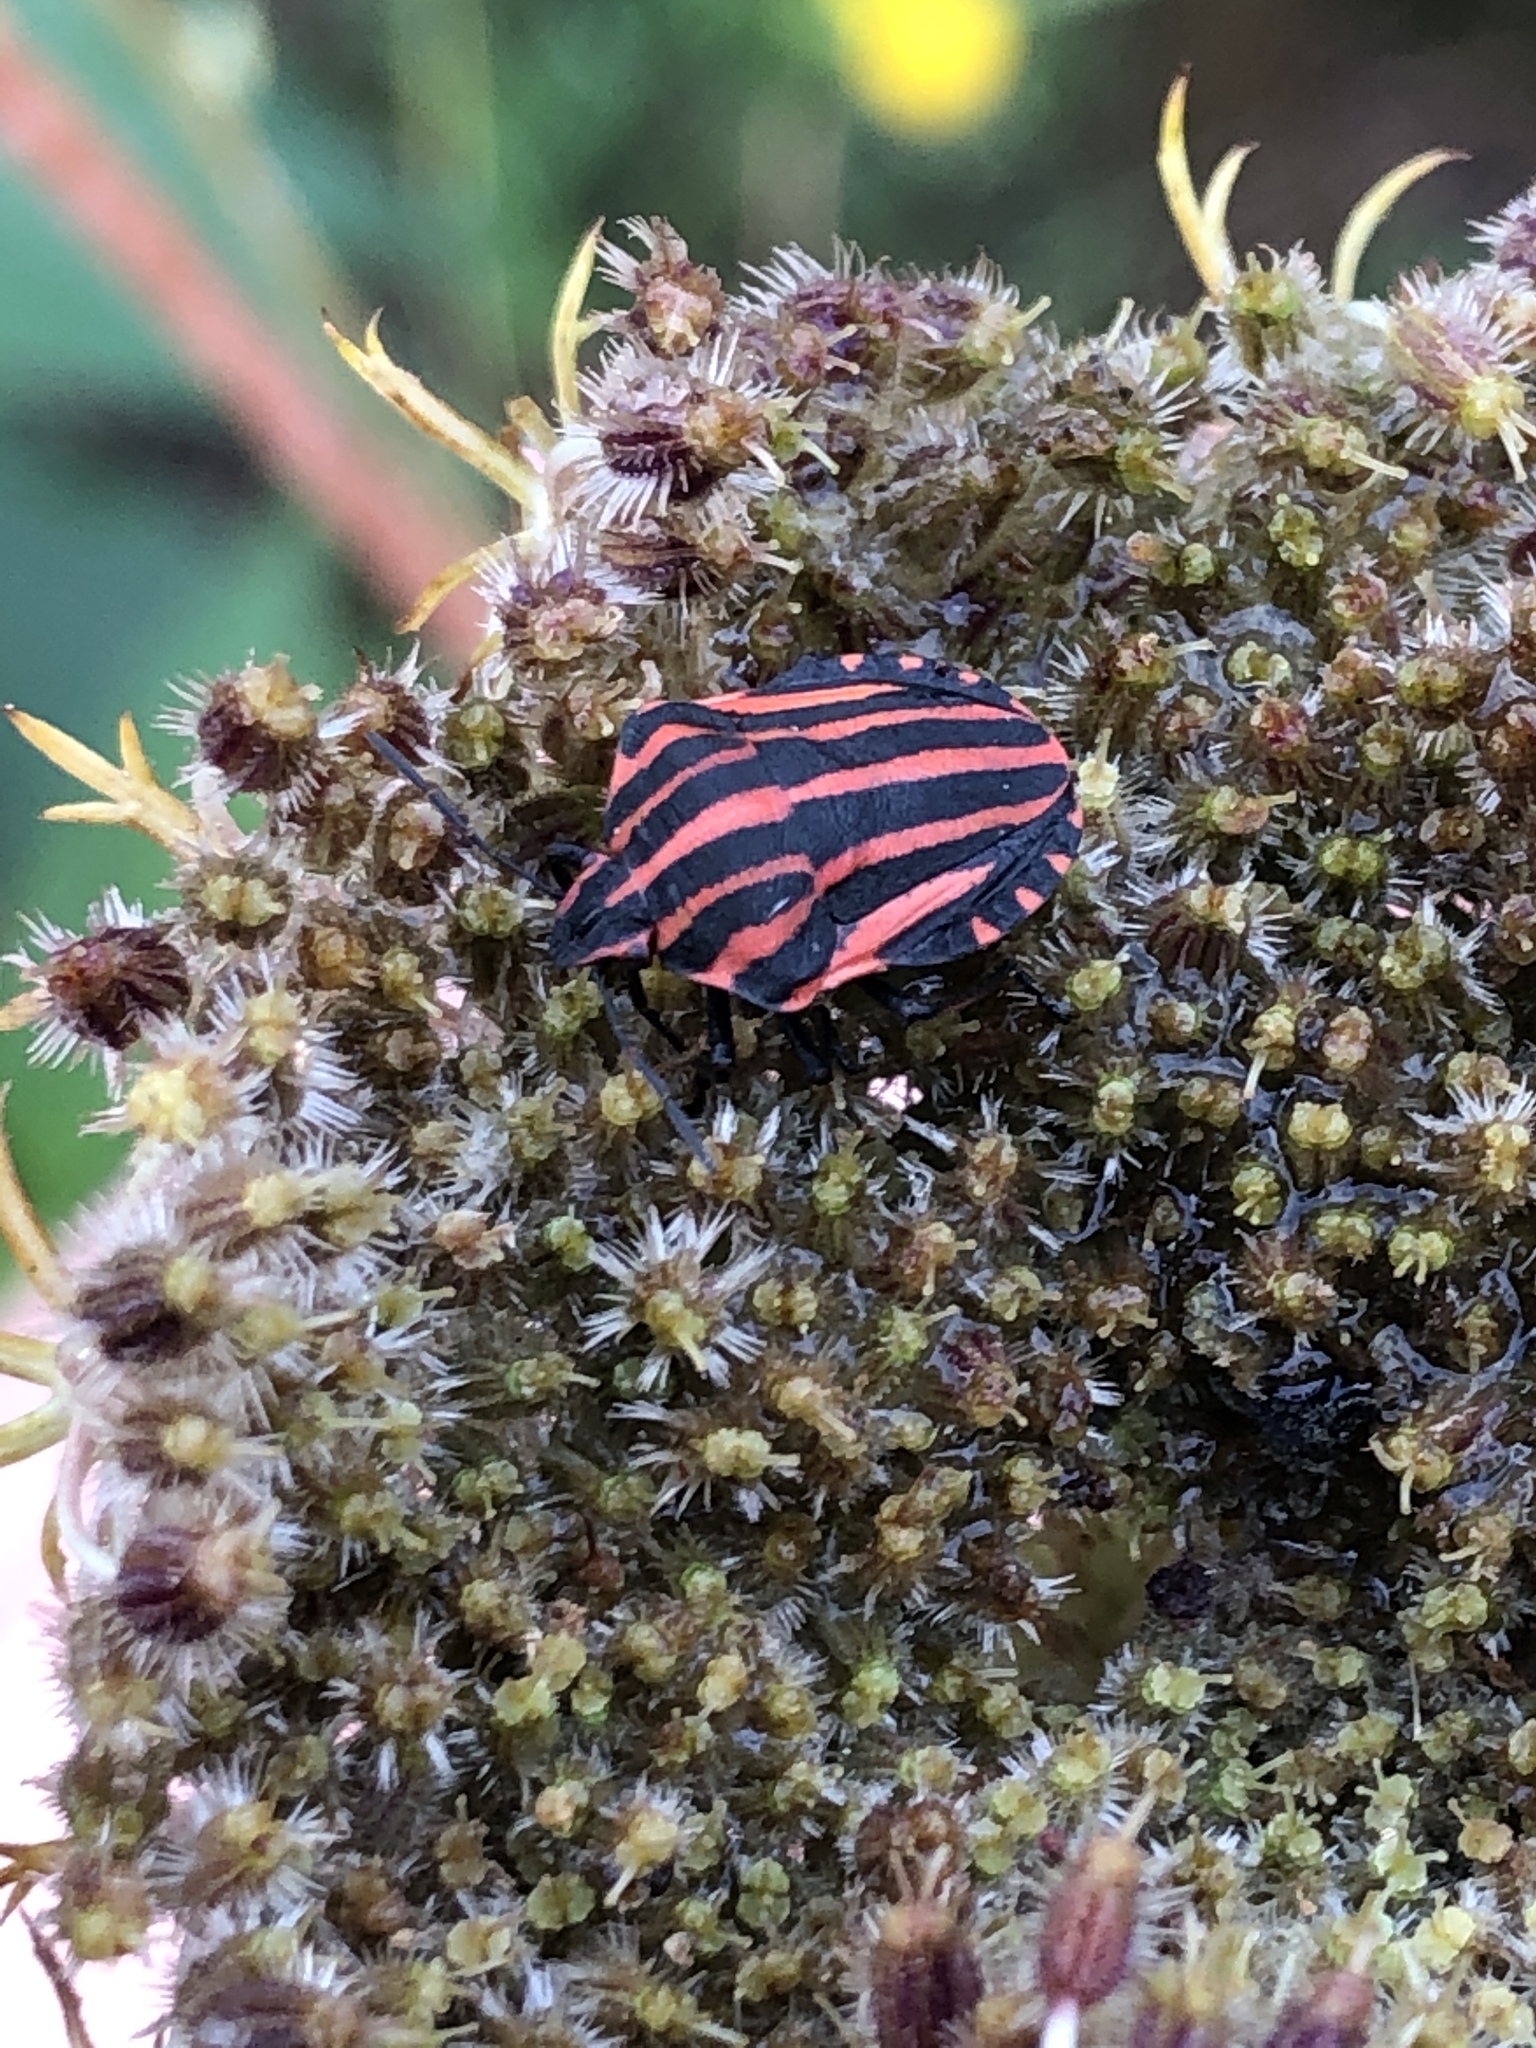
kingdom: Animalia
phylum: Arthropoda
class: Insecta
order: Hemiptera
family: Pentatomidae
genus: Graphosoma
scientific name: Graphosoma italicum
